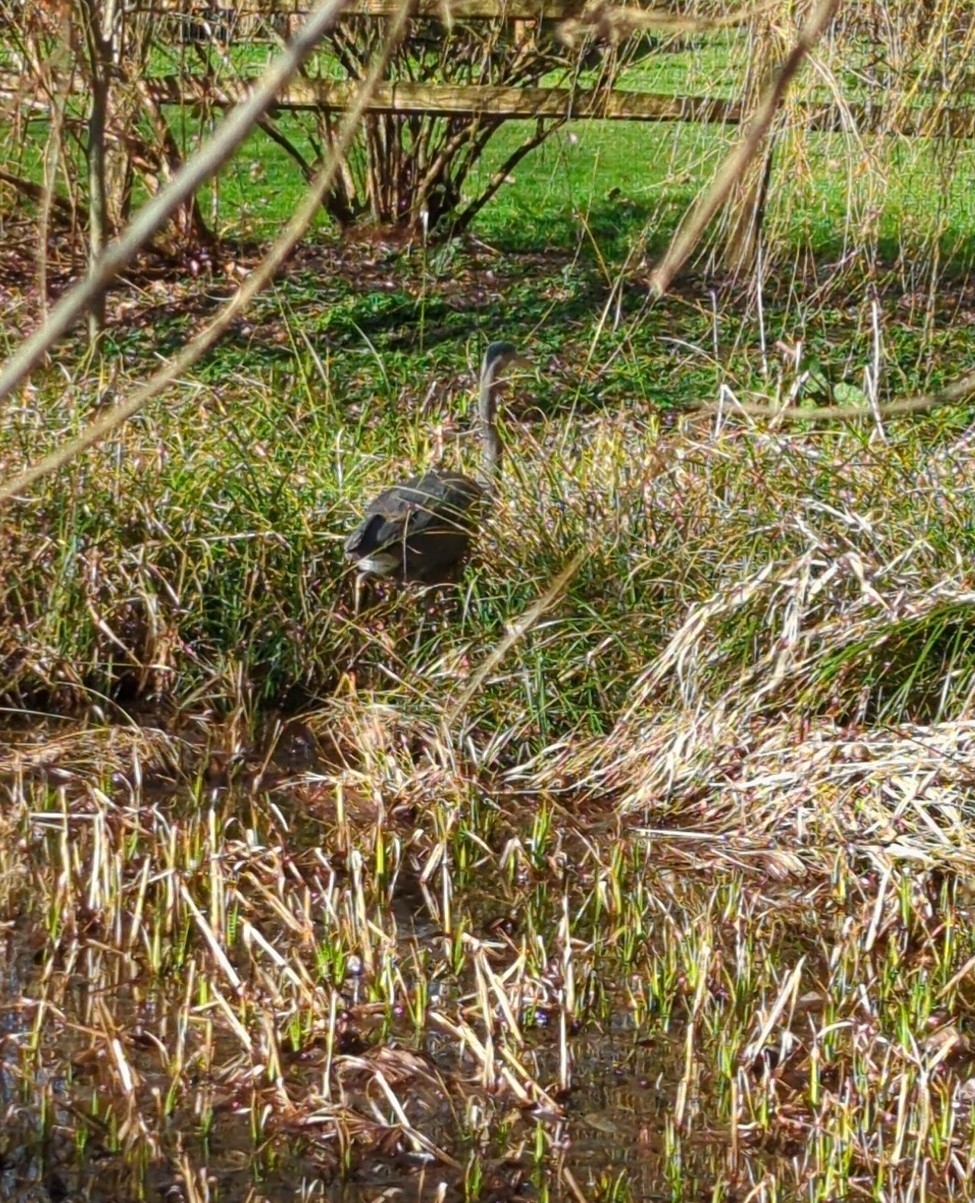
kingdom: Animalia
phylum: Chordata
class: Aves
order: Pelecaniformes
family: Ardeidae
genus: Ardea
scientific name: Ardea herodias
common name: Great blue heron
